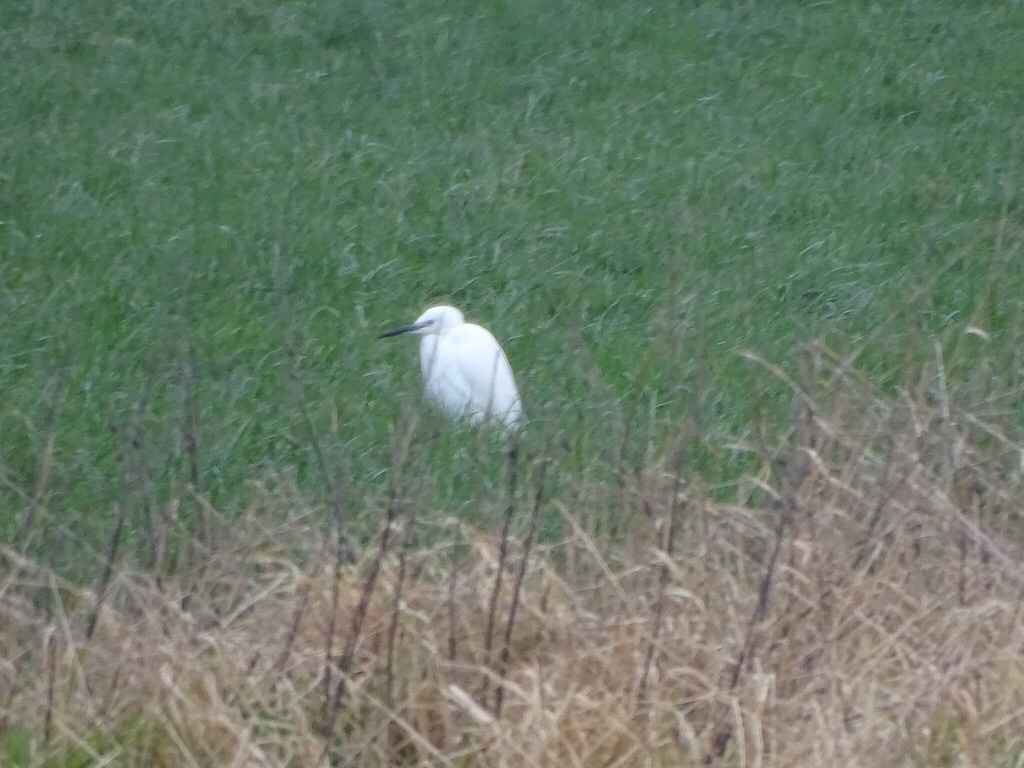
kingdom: Animalia
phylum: Chordata
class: Aves
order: Pelecaniformes
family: Ardeidae
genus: Egretta
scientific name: Egretta garzetta
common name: Little egret
